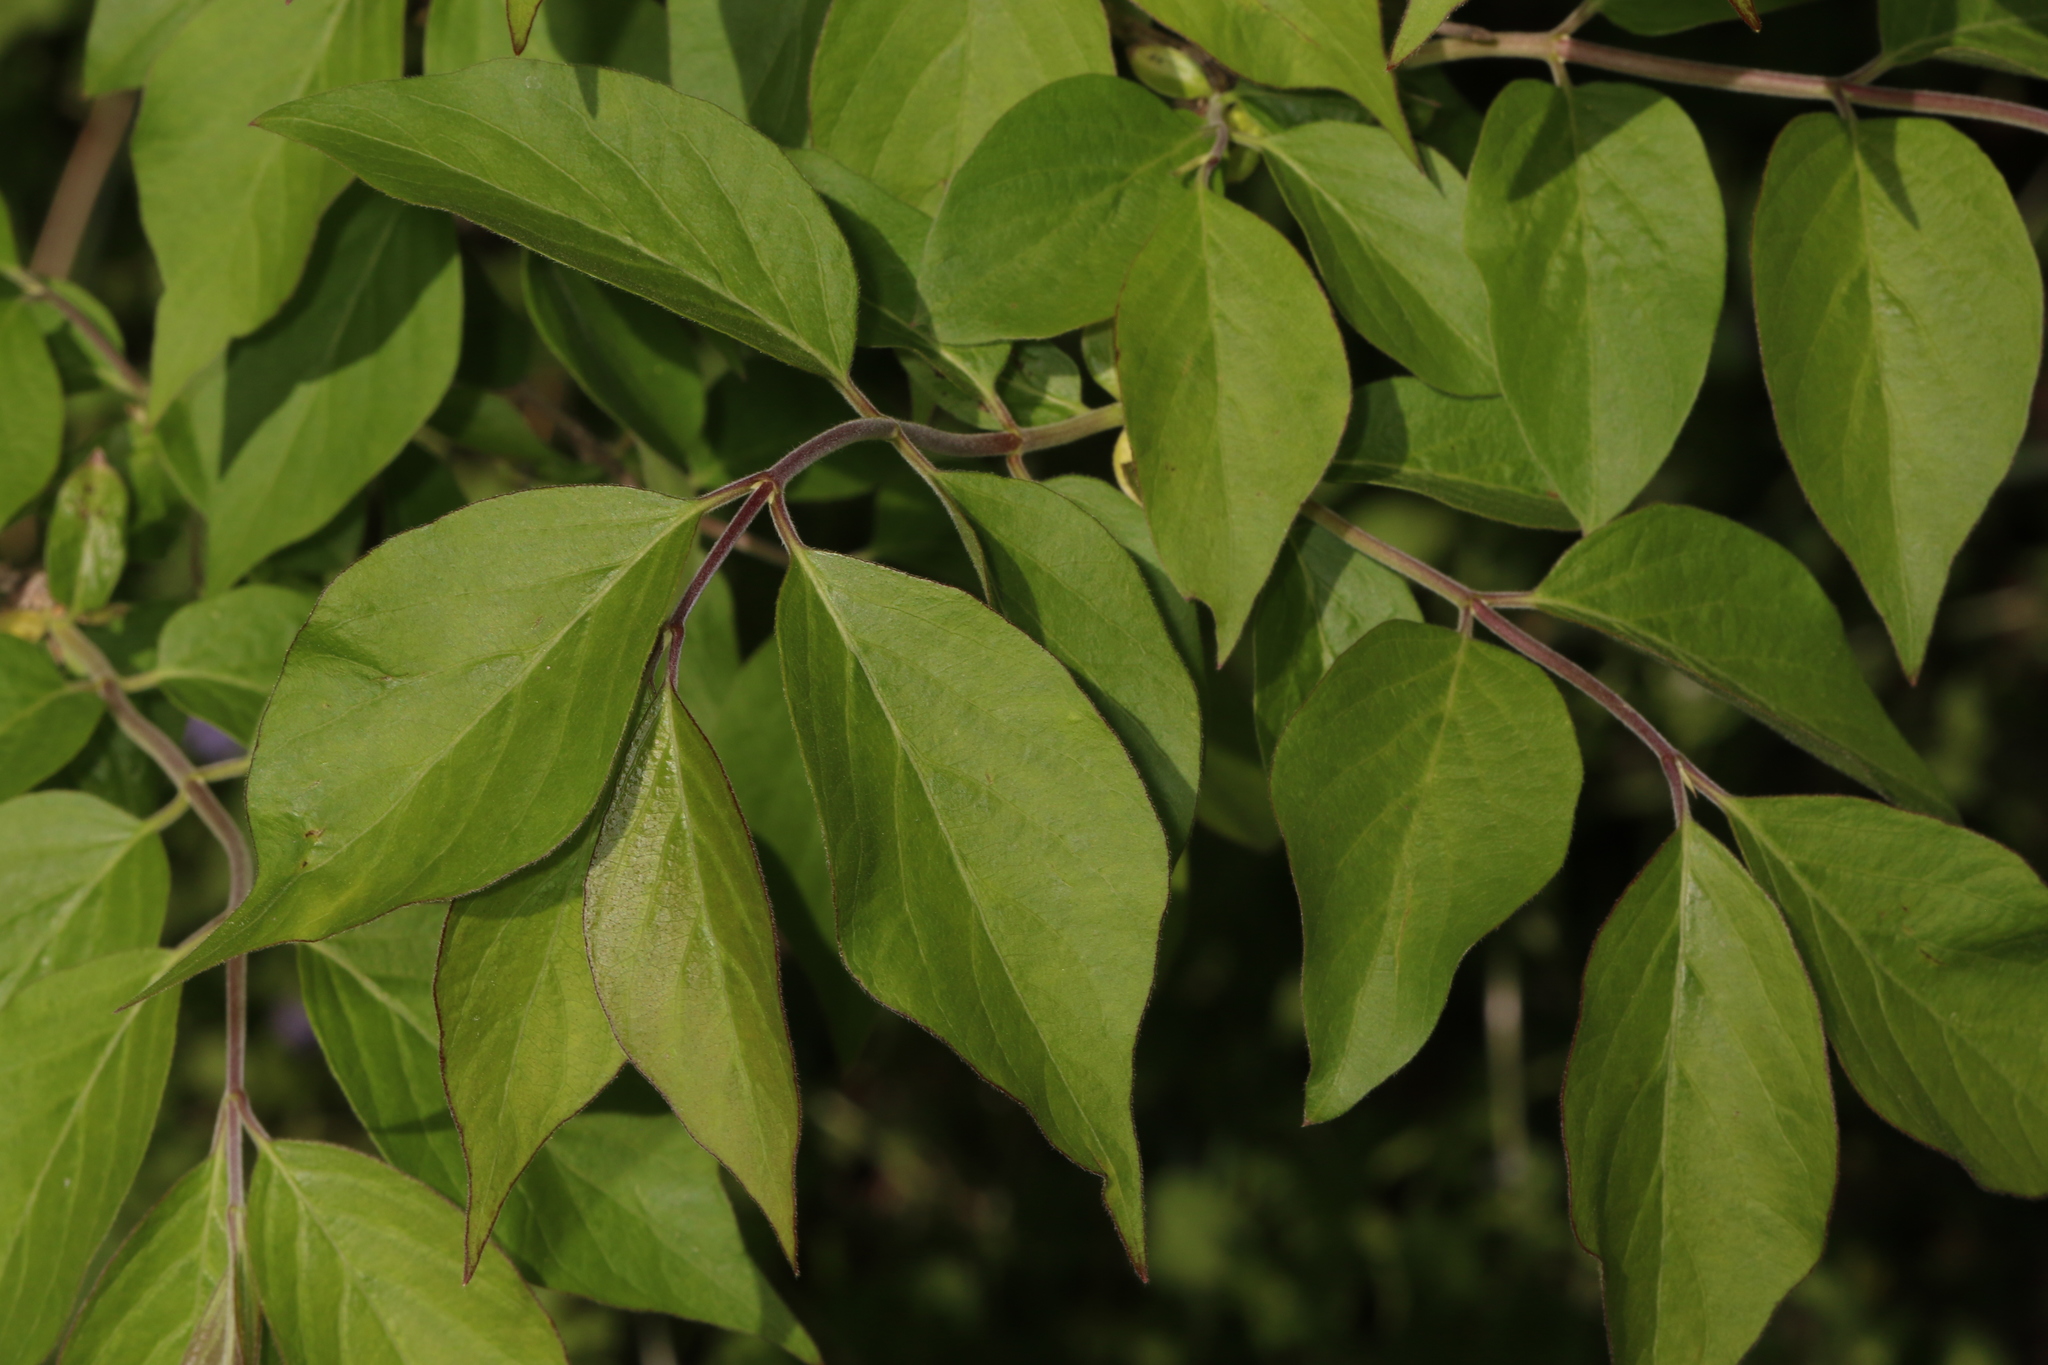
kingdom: Plantae
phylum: Tracheophyta
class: Magnoliopsida
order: Dipsacales
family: Caprifoliaceae
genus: Lonicera
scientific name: Lonicera maackii
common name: Amur honeysuckle
